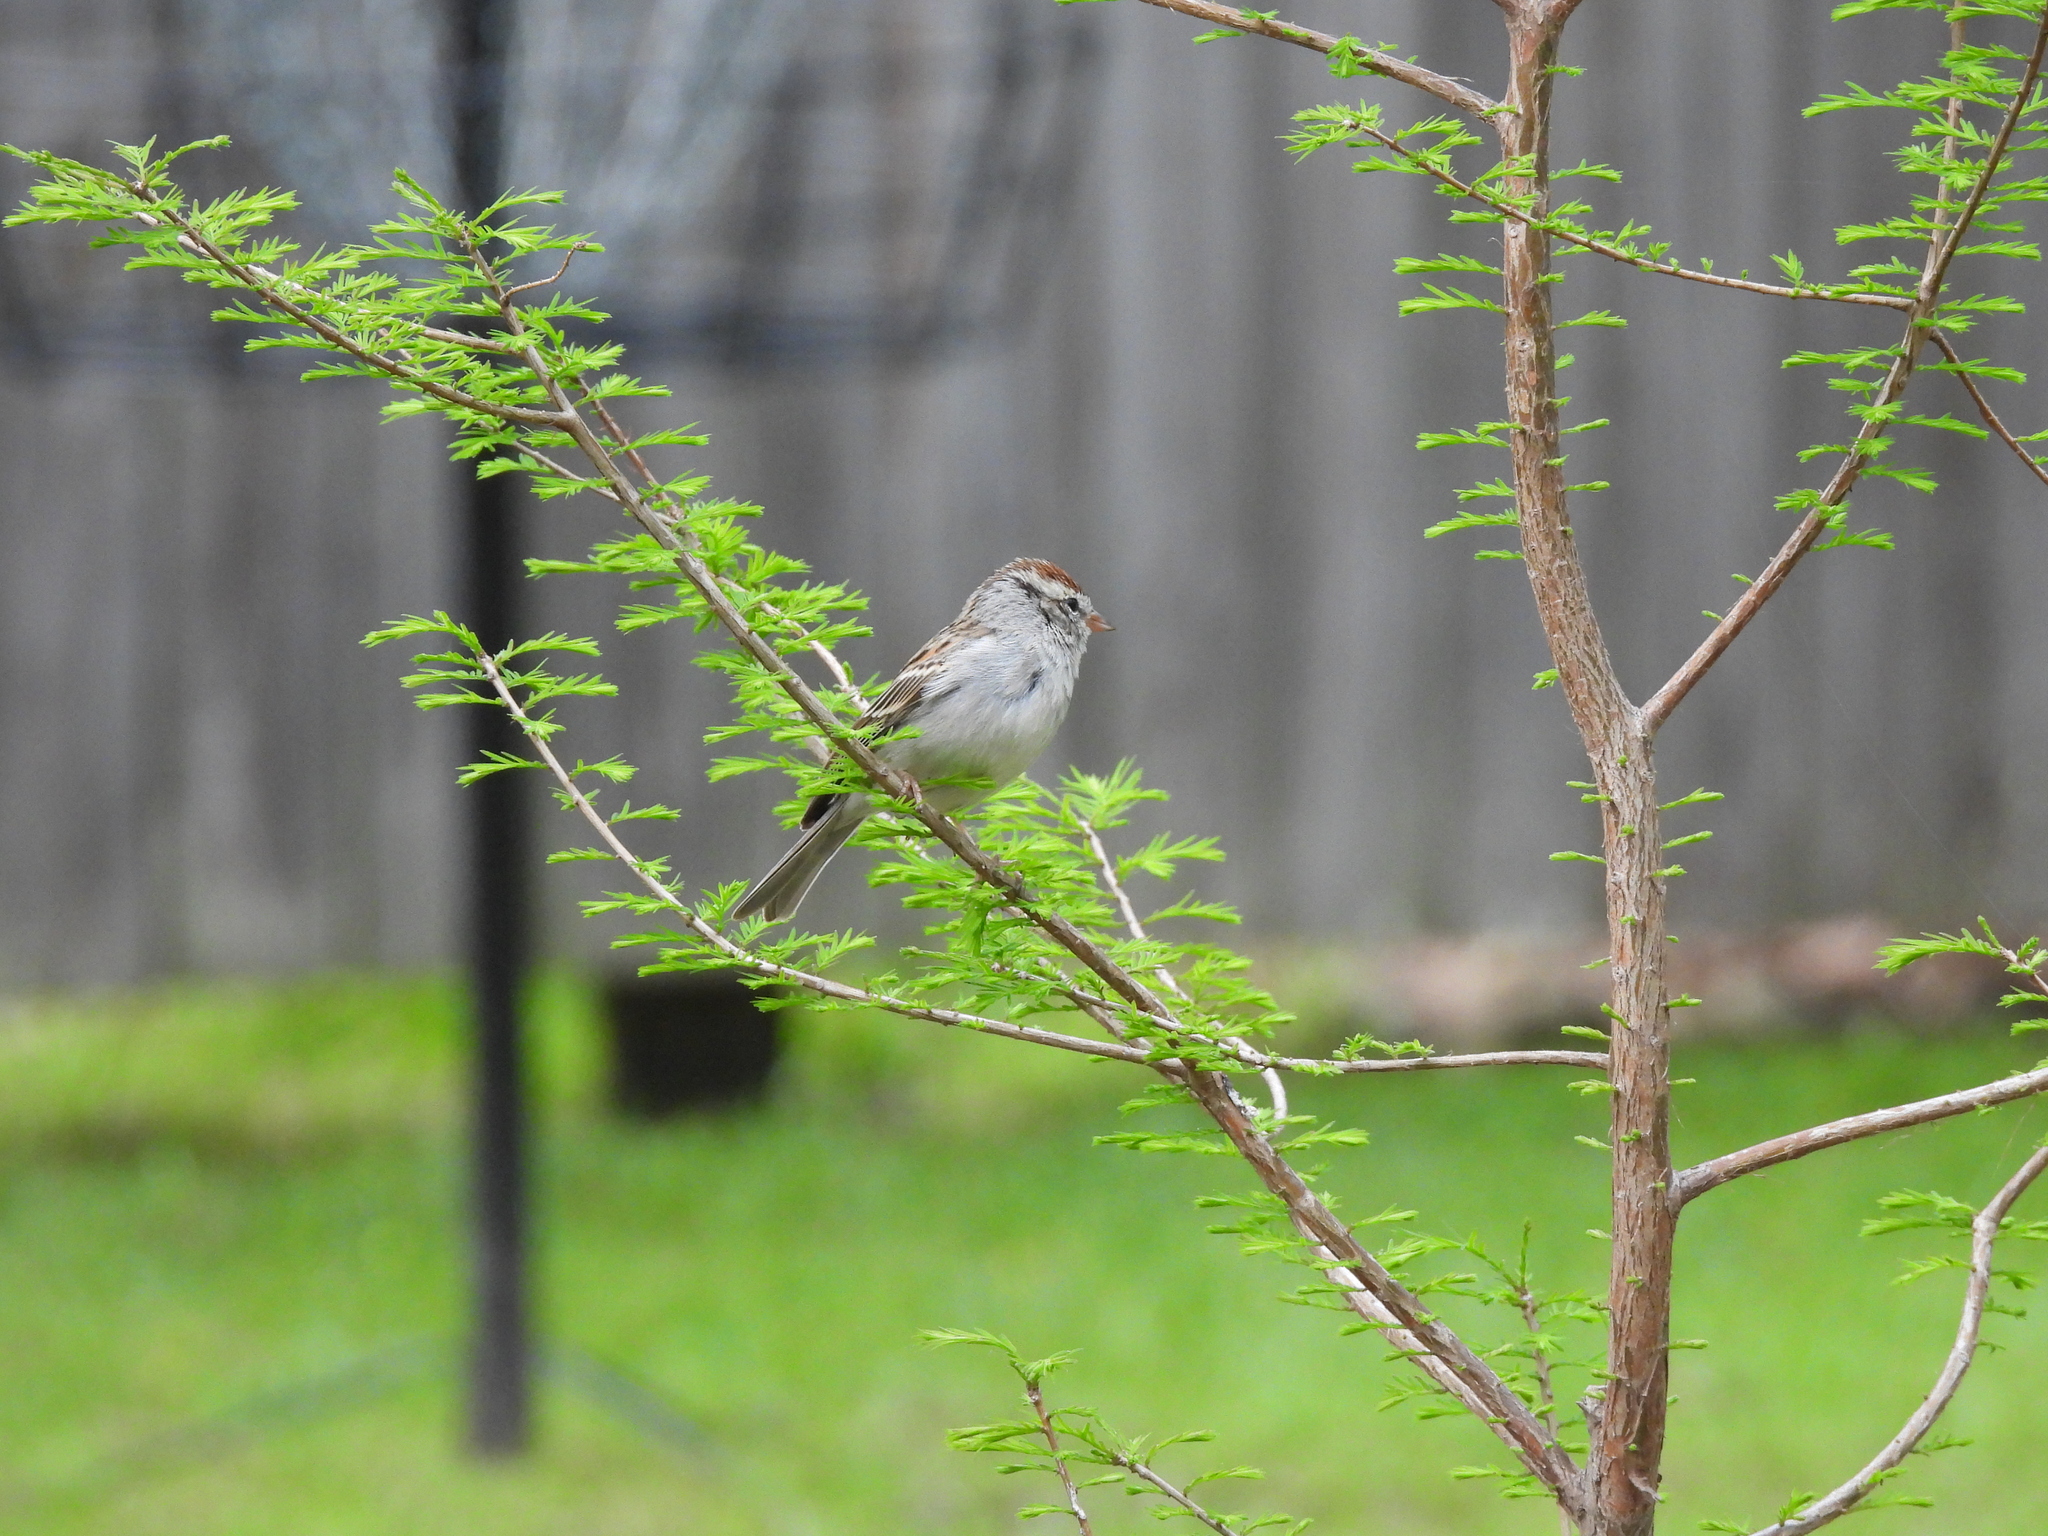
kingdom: Animalia
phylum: Chordata
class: Aves
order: Passeriformes
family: Passerellidae
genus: Spizella
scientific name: Spizella passerina
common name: Chipping sparrow
